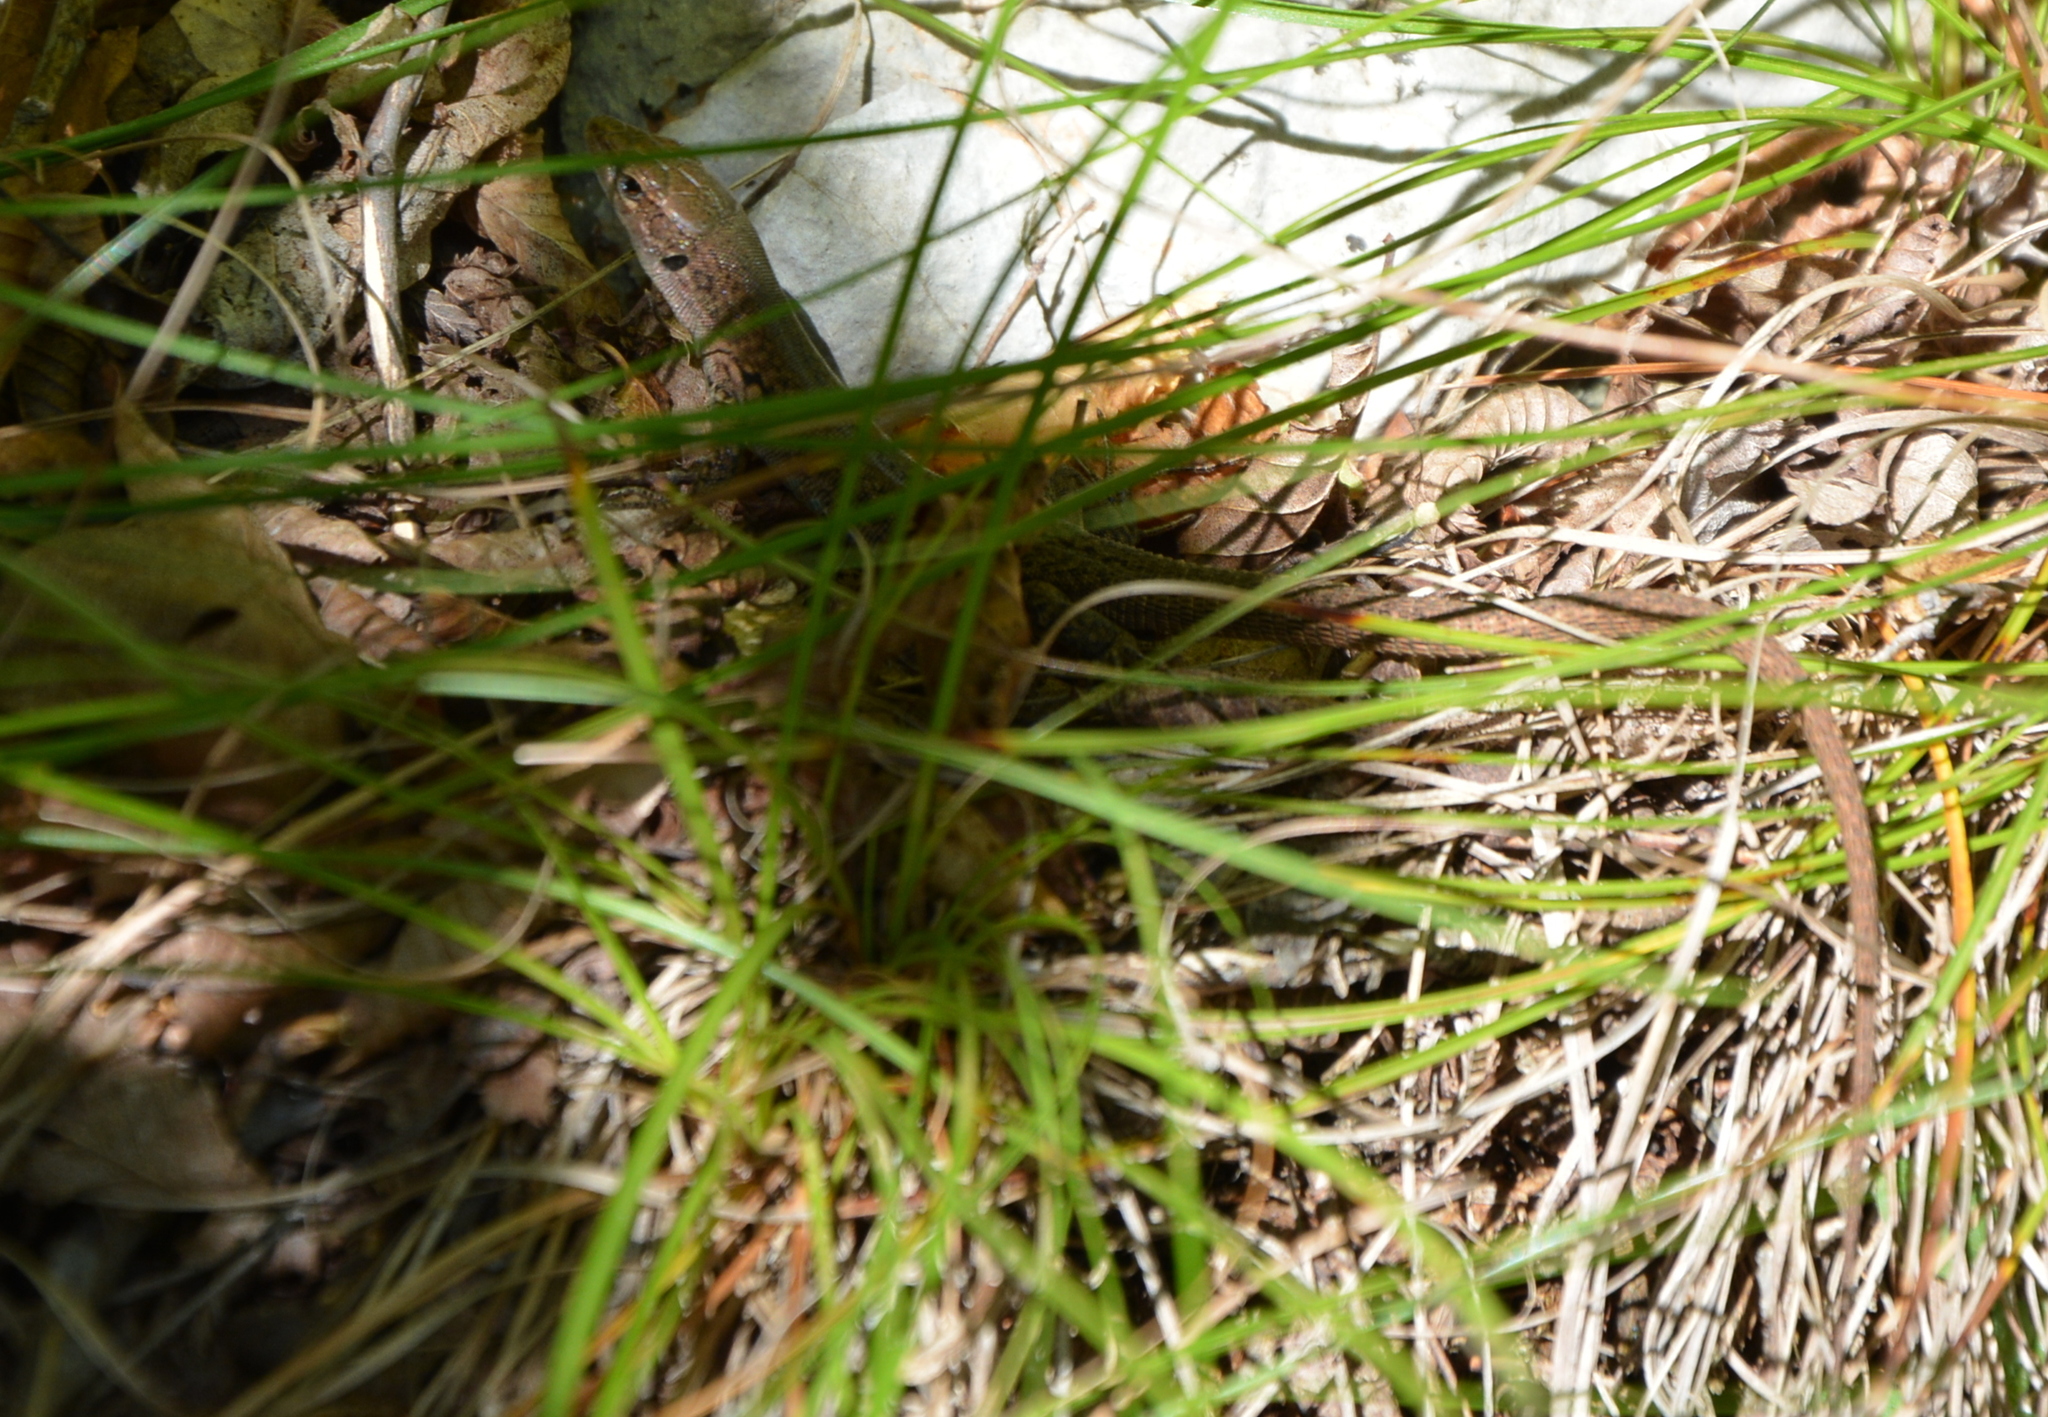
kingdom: Animalia
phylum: Chordata
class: Squamata
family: Lacertidae
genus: Podarcis
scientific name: Podarcis melisellensis
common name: Dalmatian wall lizard
